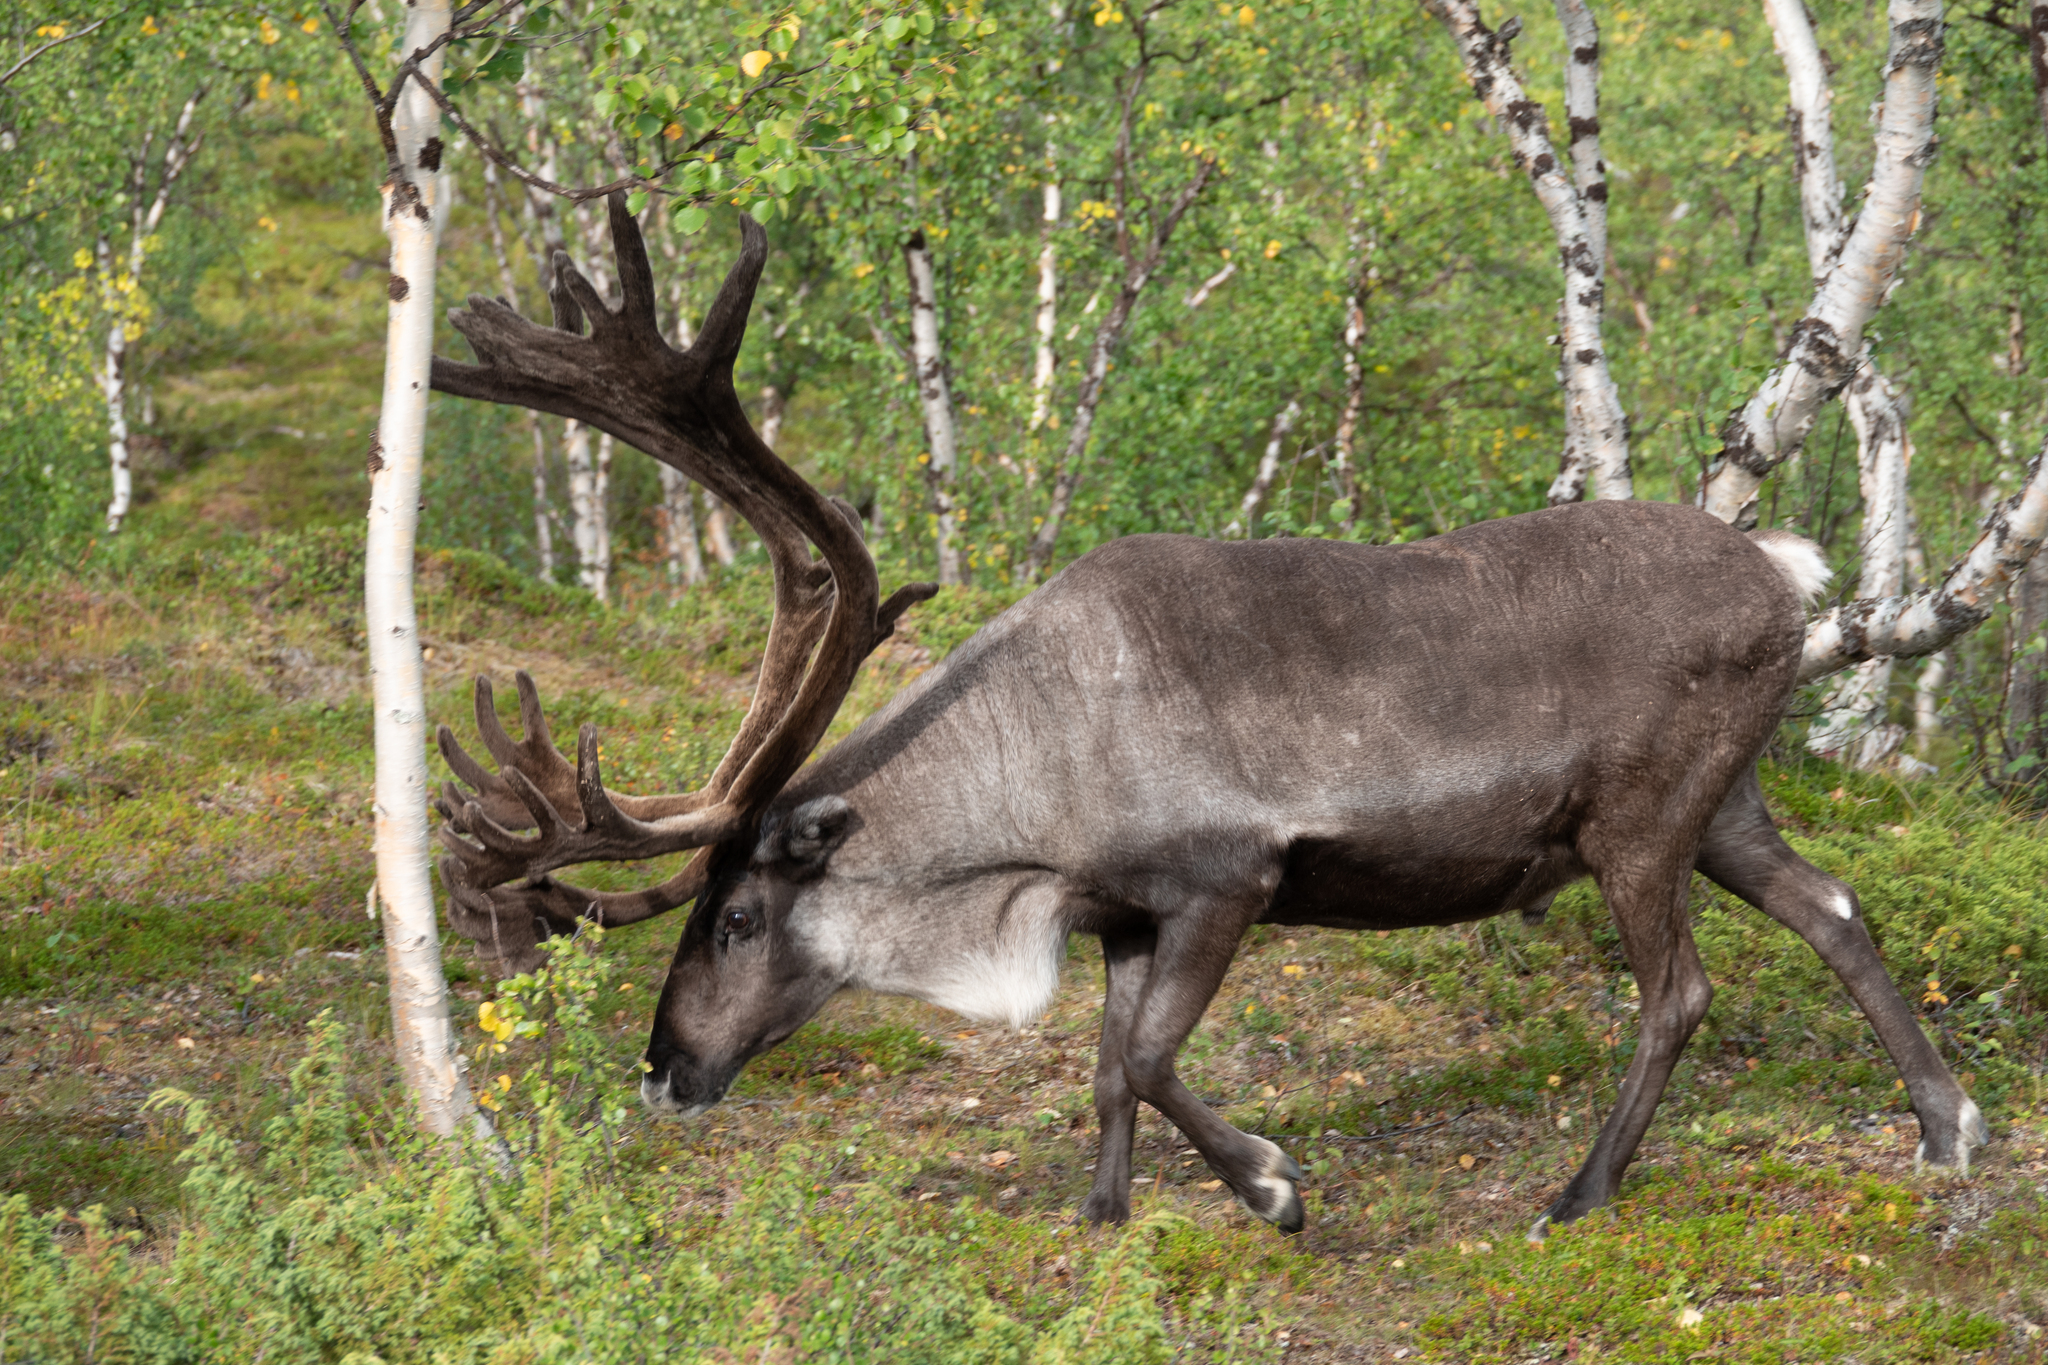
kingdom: Animalia
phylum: Chordata
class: Mammalia
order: Artiodactyla
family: Cervidae
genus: Rangifer
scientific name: Rangifer tarandus
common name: Reindeer
